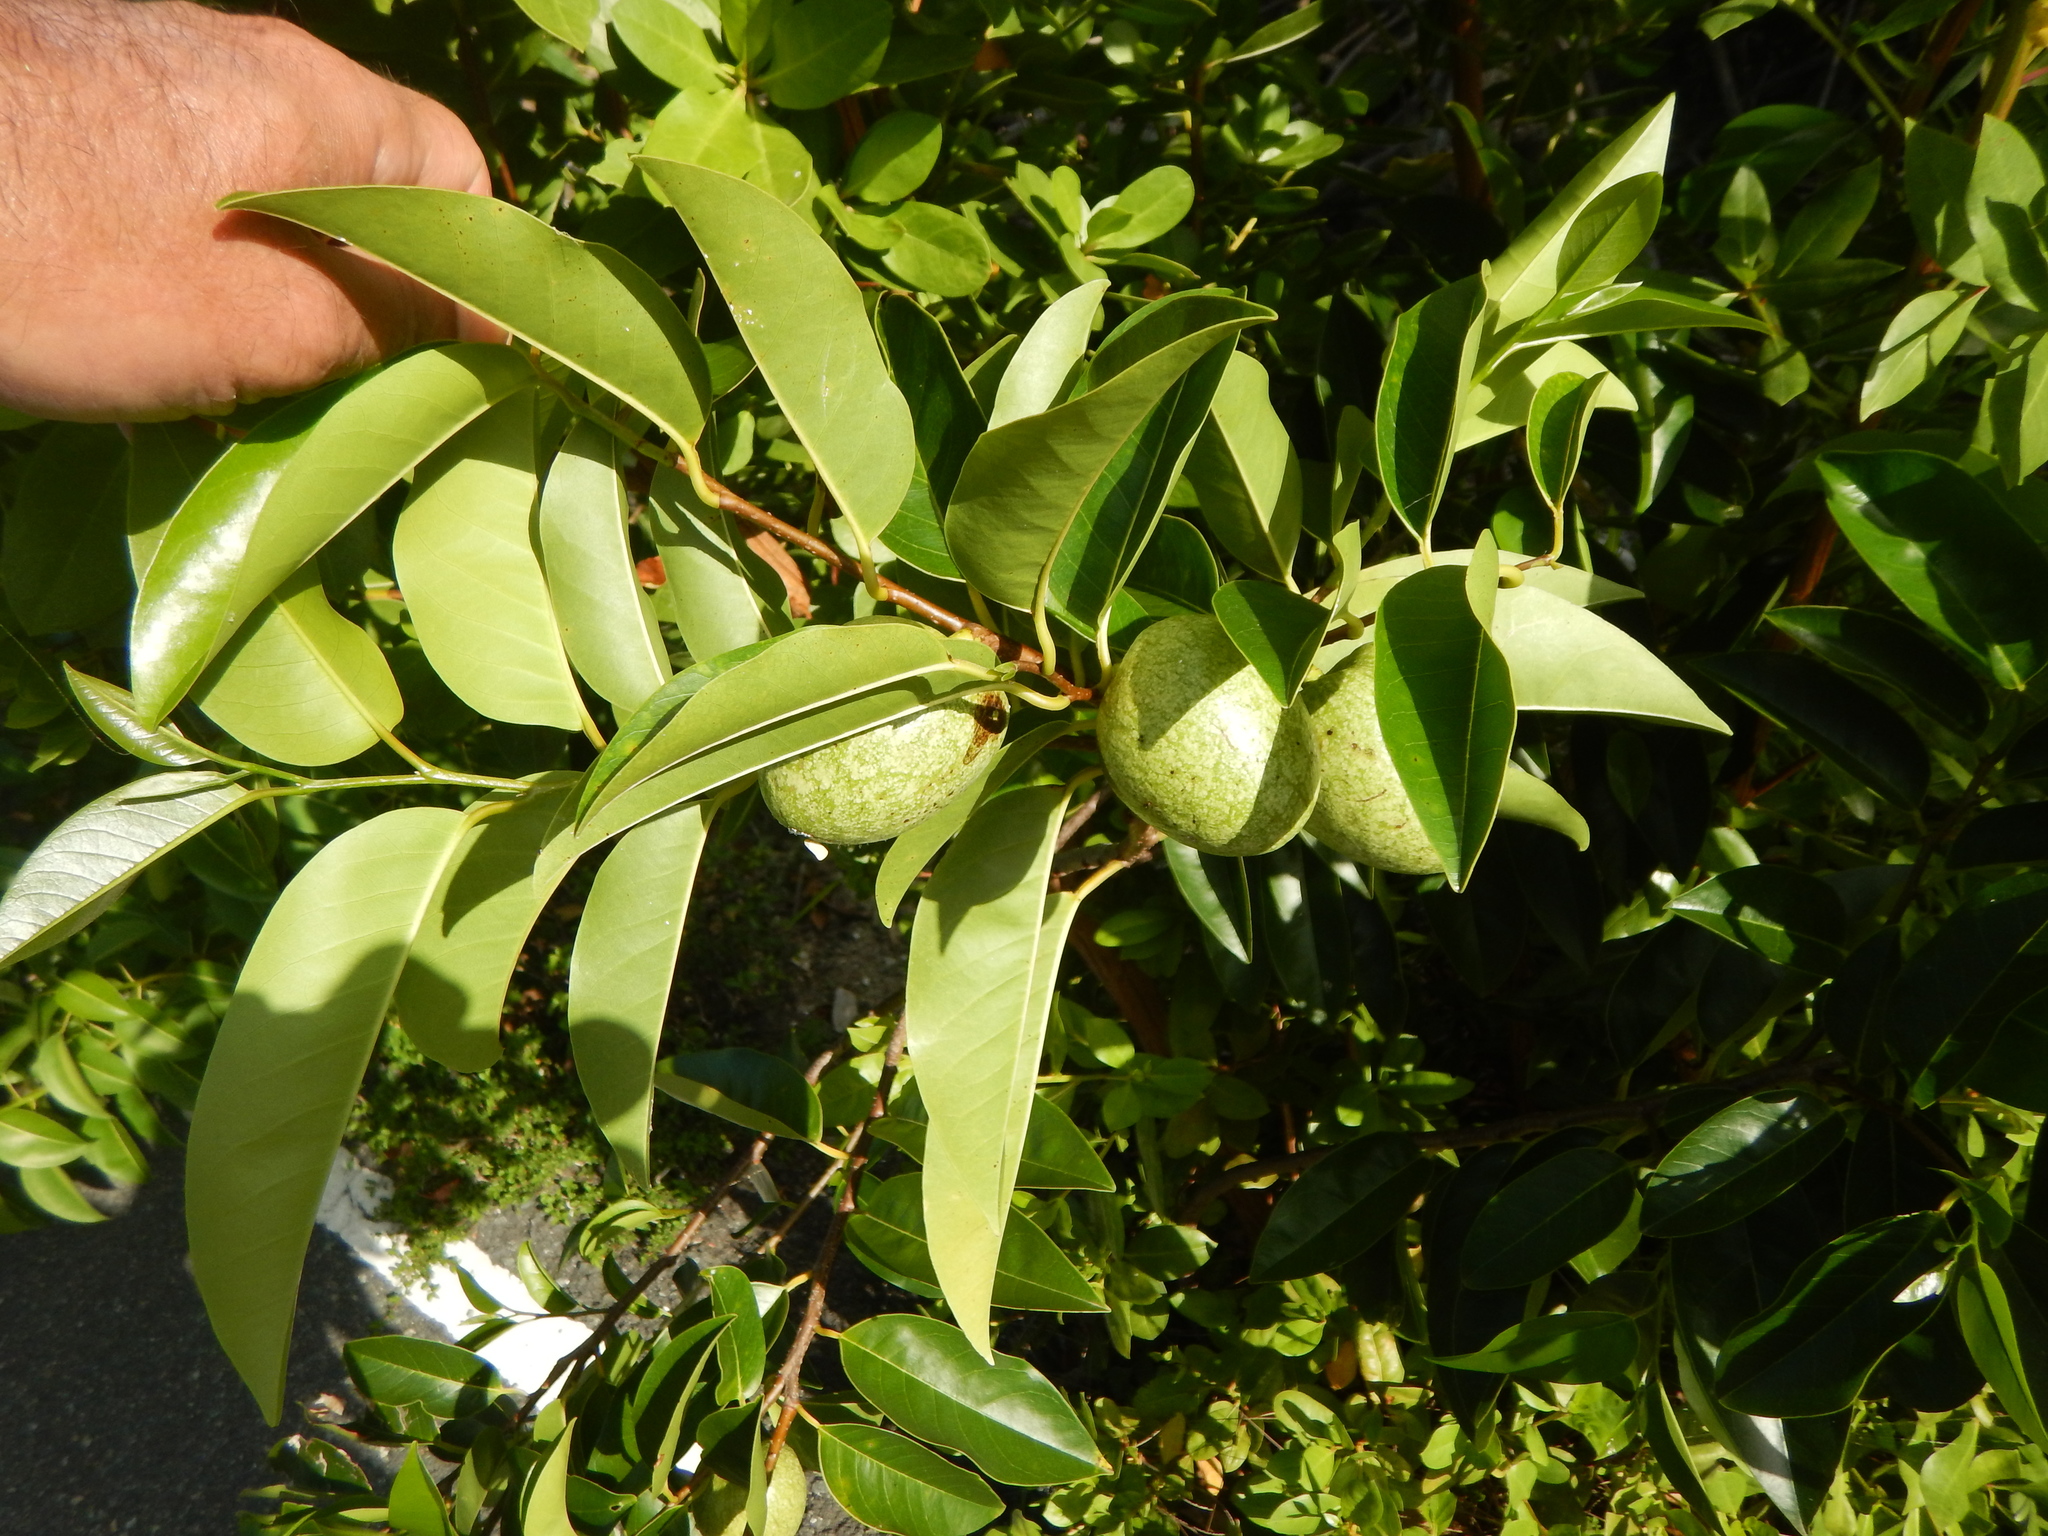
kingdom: Plantae
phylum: Tracheophyta
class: Magnoliopsida
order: Magnoliales
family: Annonaceae
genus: Annona
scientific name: Annona glabra
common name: Monkey apple
